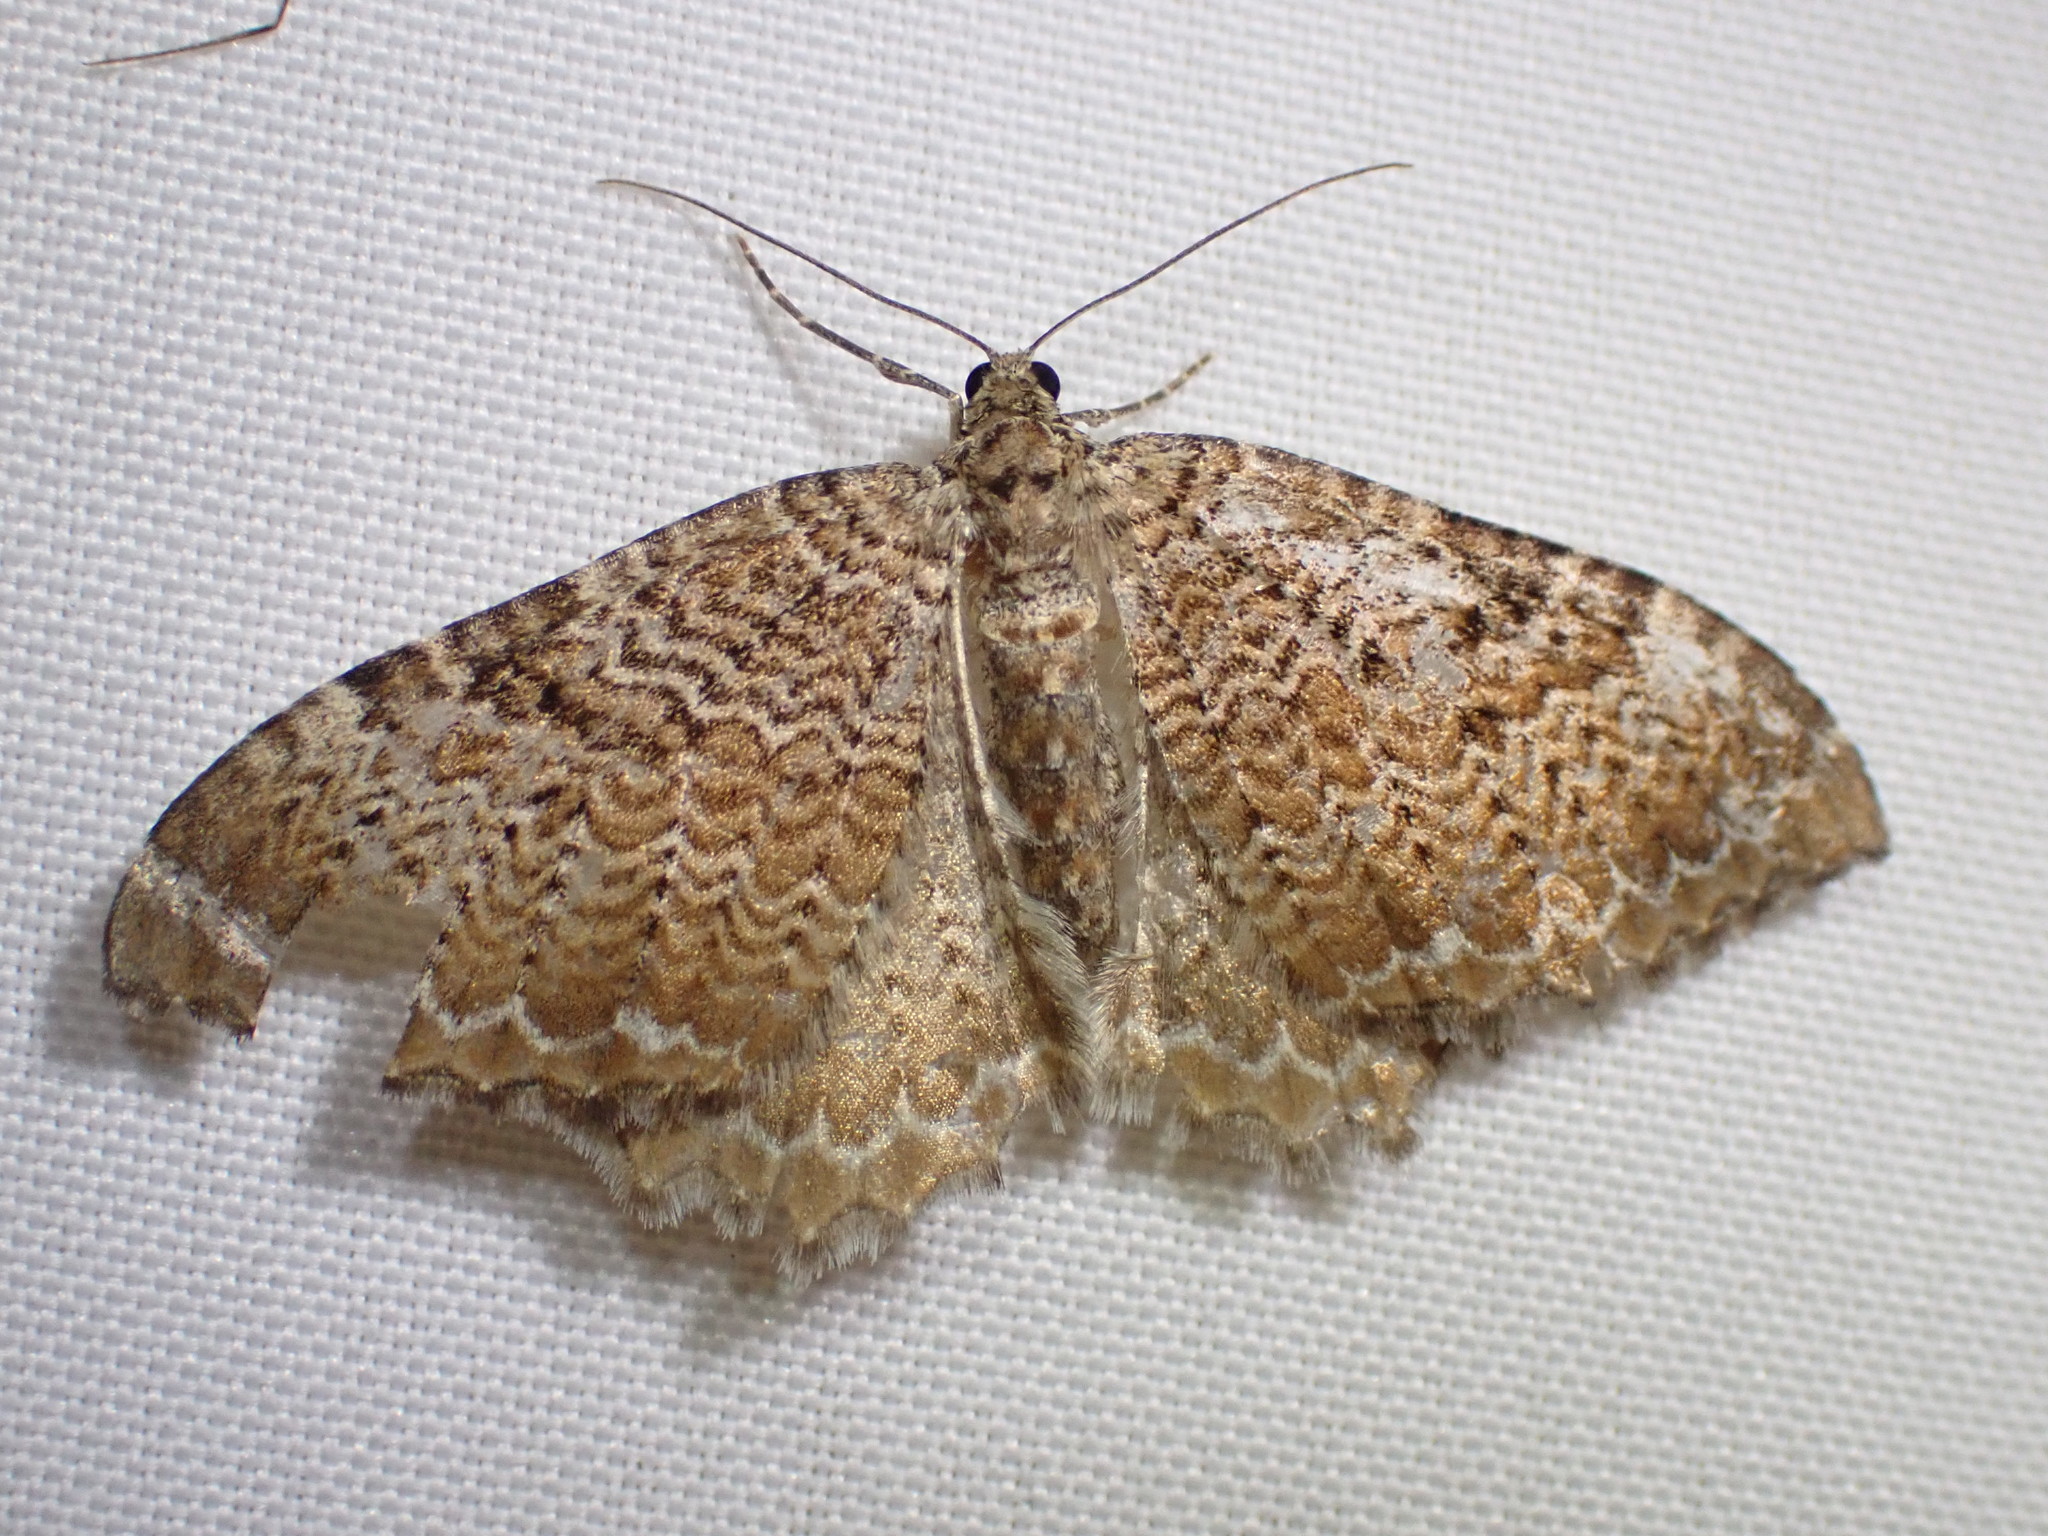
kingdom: Animalia
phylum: Arthropoda
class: Insecta
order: Lepidoptera
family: Geometridae
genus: Rheumaptera
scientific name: Rheumaptera undulata
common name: Scallop shell
